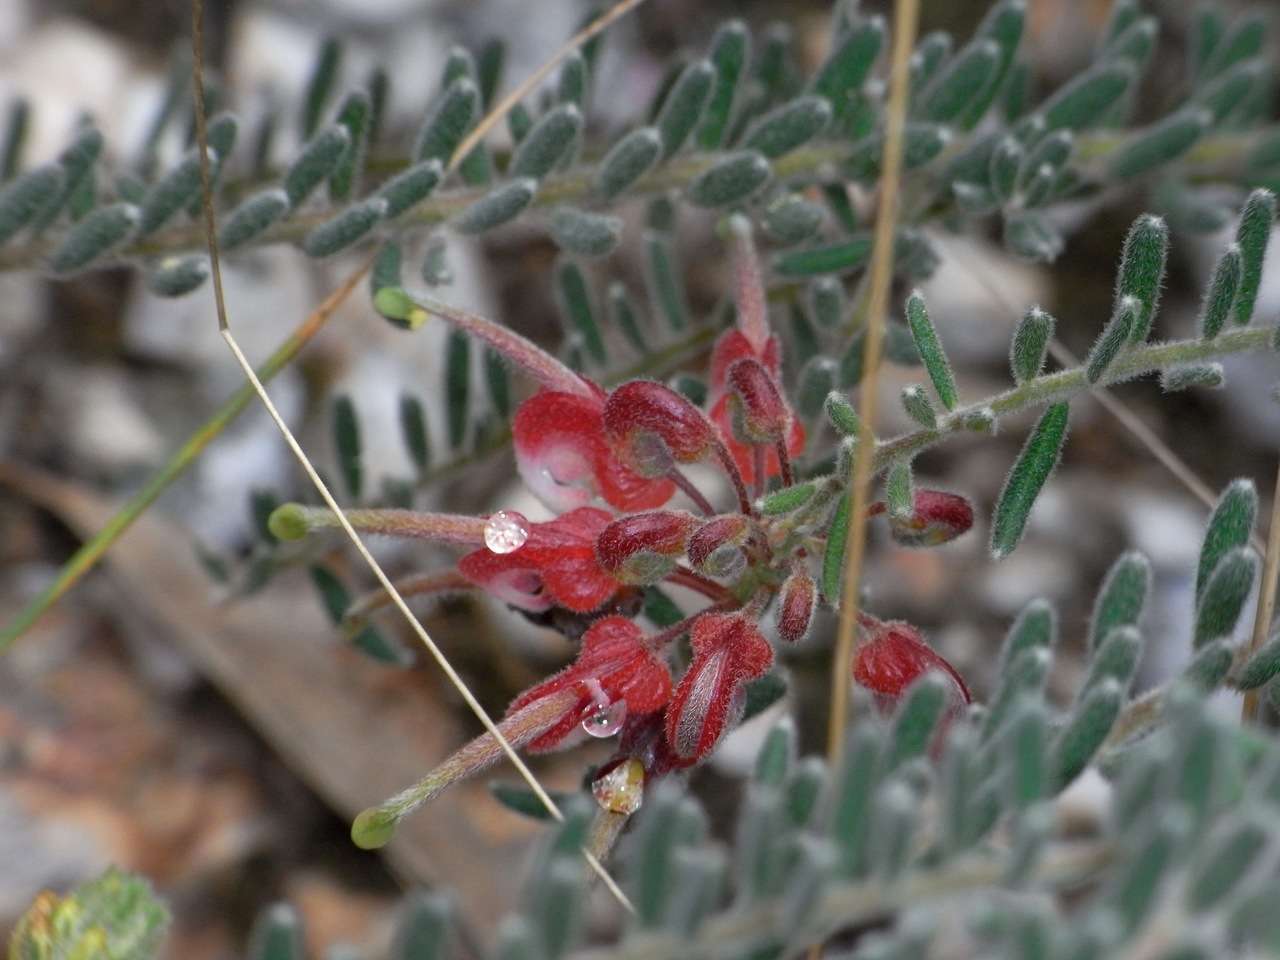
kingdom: Plantae
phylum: Tracheophyta
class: Magnoliopsida
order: Proteales
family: Proteaceae
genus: Grevillea
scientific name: Grevillea alpina
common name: Catclaws grevillea
